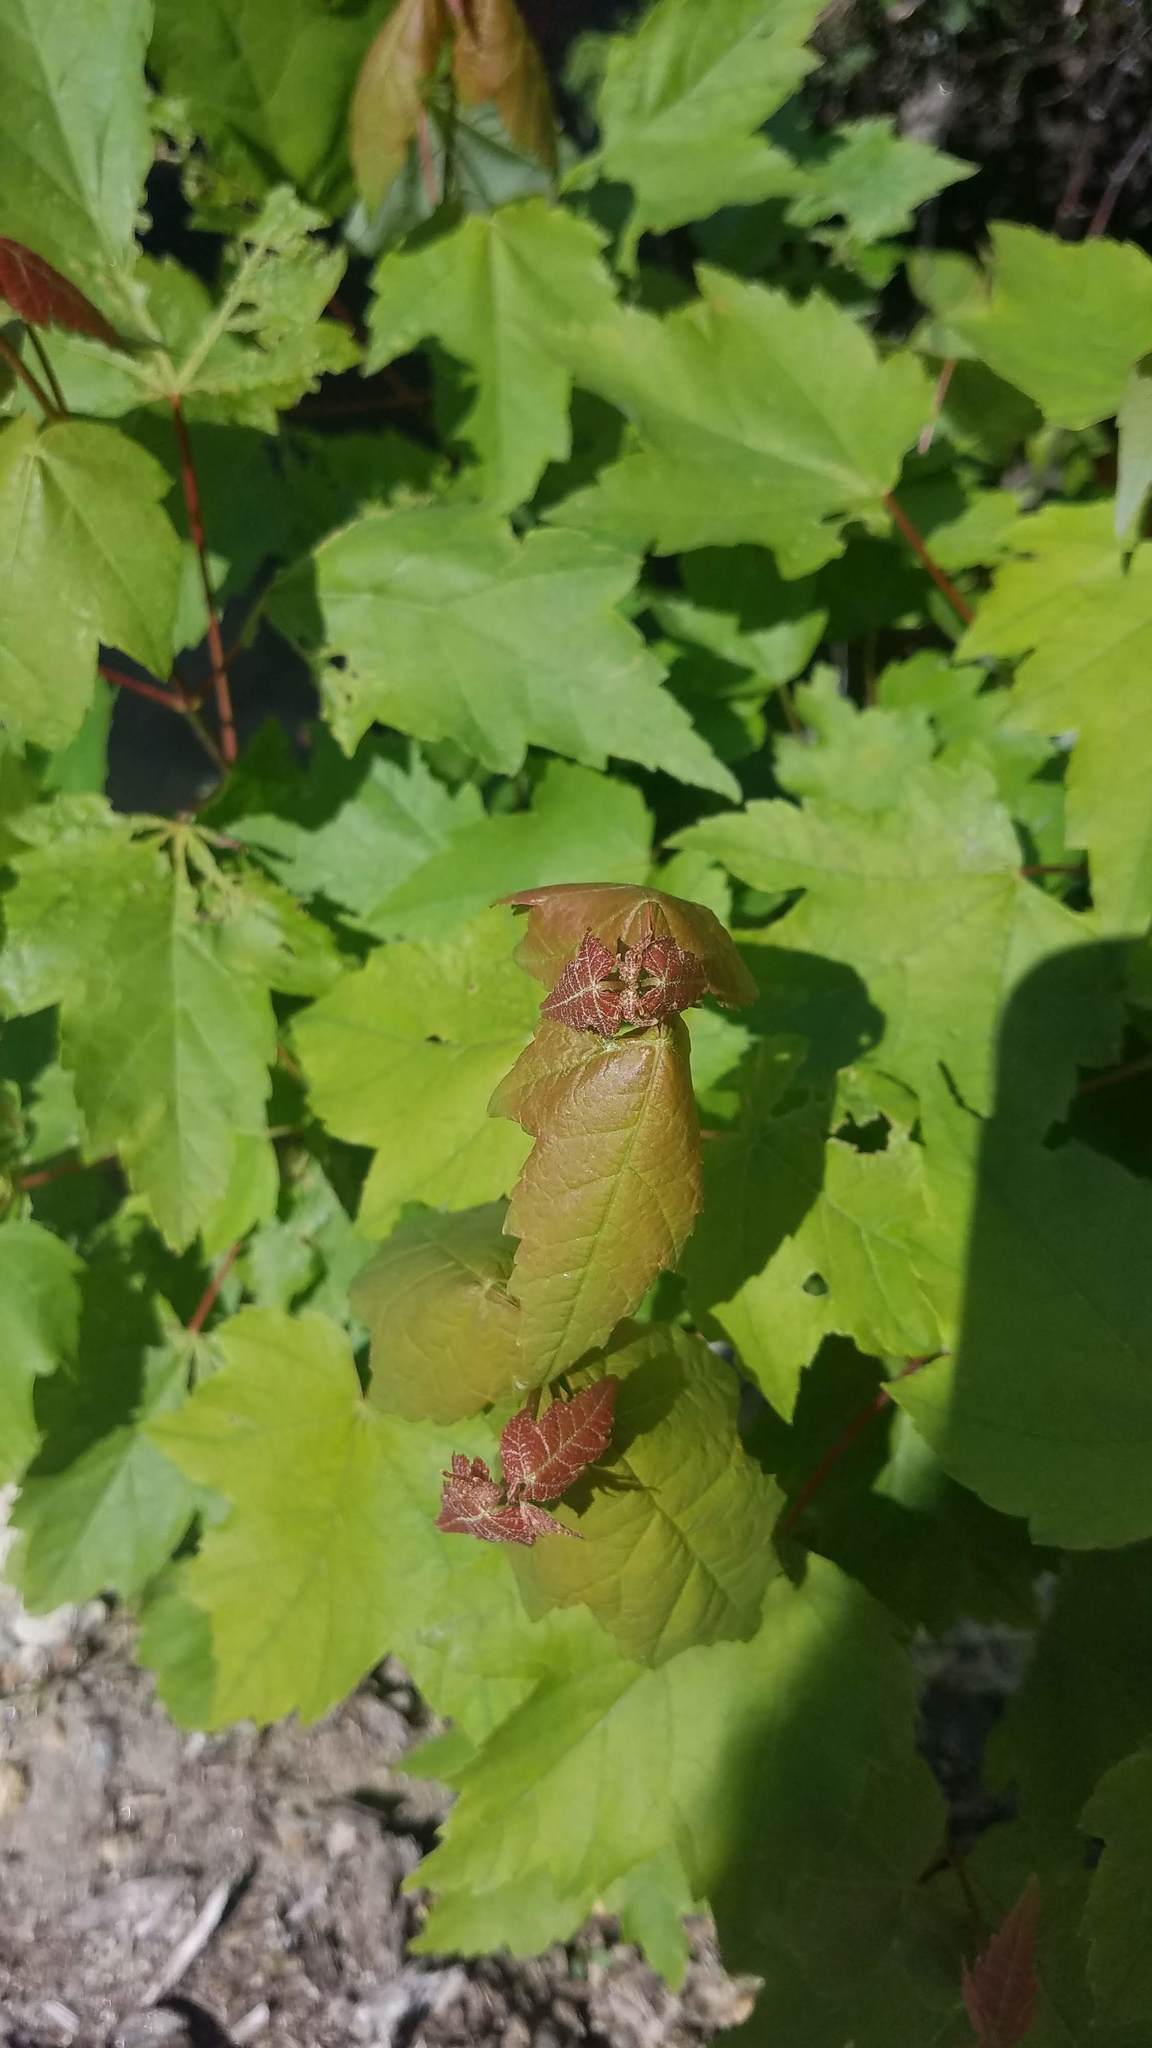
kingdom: Plantae
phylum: Tracheophyta
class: Magnoliopsida
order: Sapindales
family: Sapindaceae
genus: Acer
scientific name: Acer rubrum
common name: Red maple
